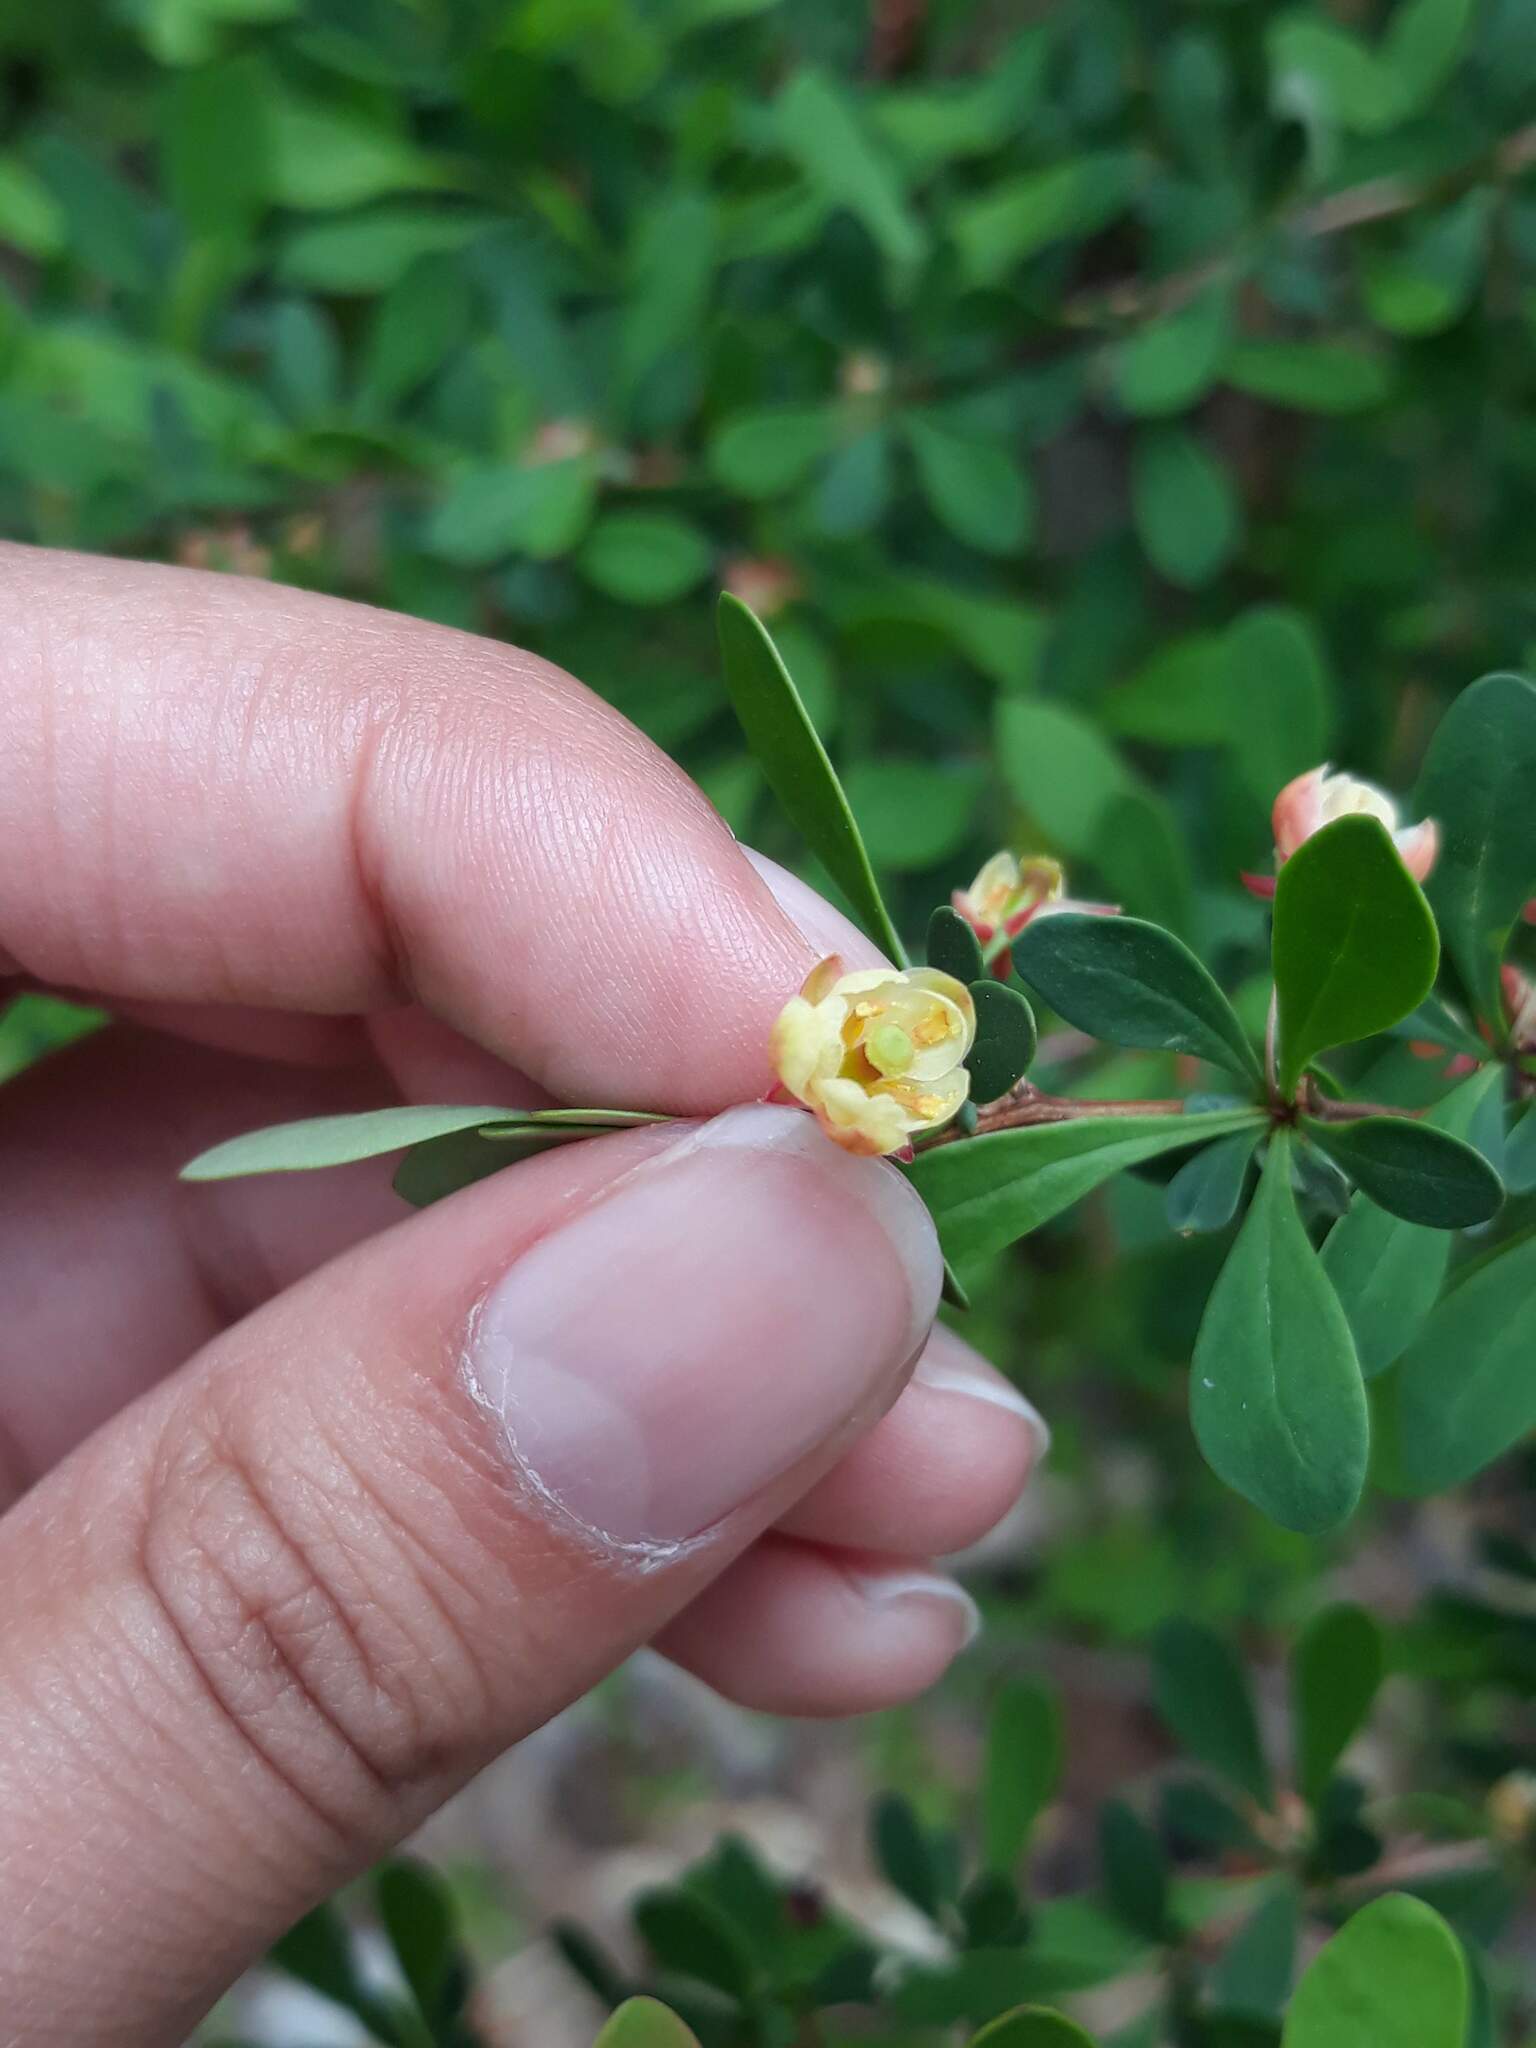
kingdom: Plantae
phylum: Tracheophyta
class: Magnoliopsida
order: Ranunculales
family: Berberidaceae
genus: Berberis
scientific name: Berberis thunbergii
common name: Japanese barberry
